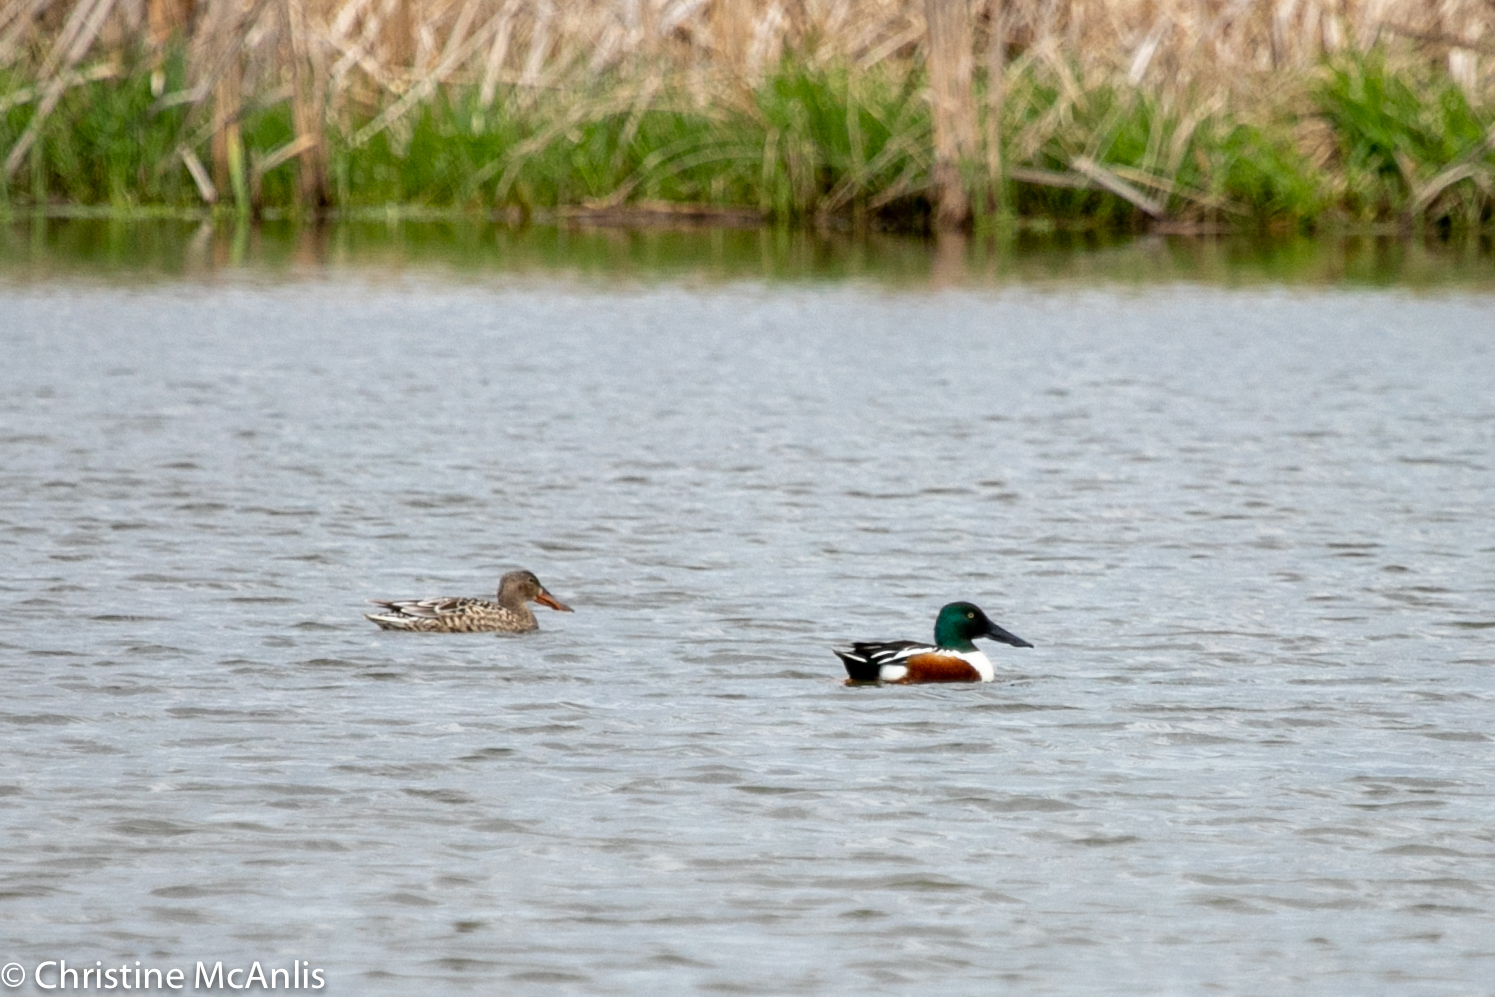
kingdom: Animalia
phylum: Chordata
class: Aves
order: Anseriformes
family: Anatidae
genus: Spatula
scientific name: Spatula clypeata
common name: Northern shoveler
